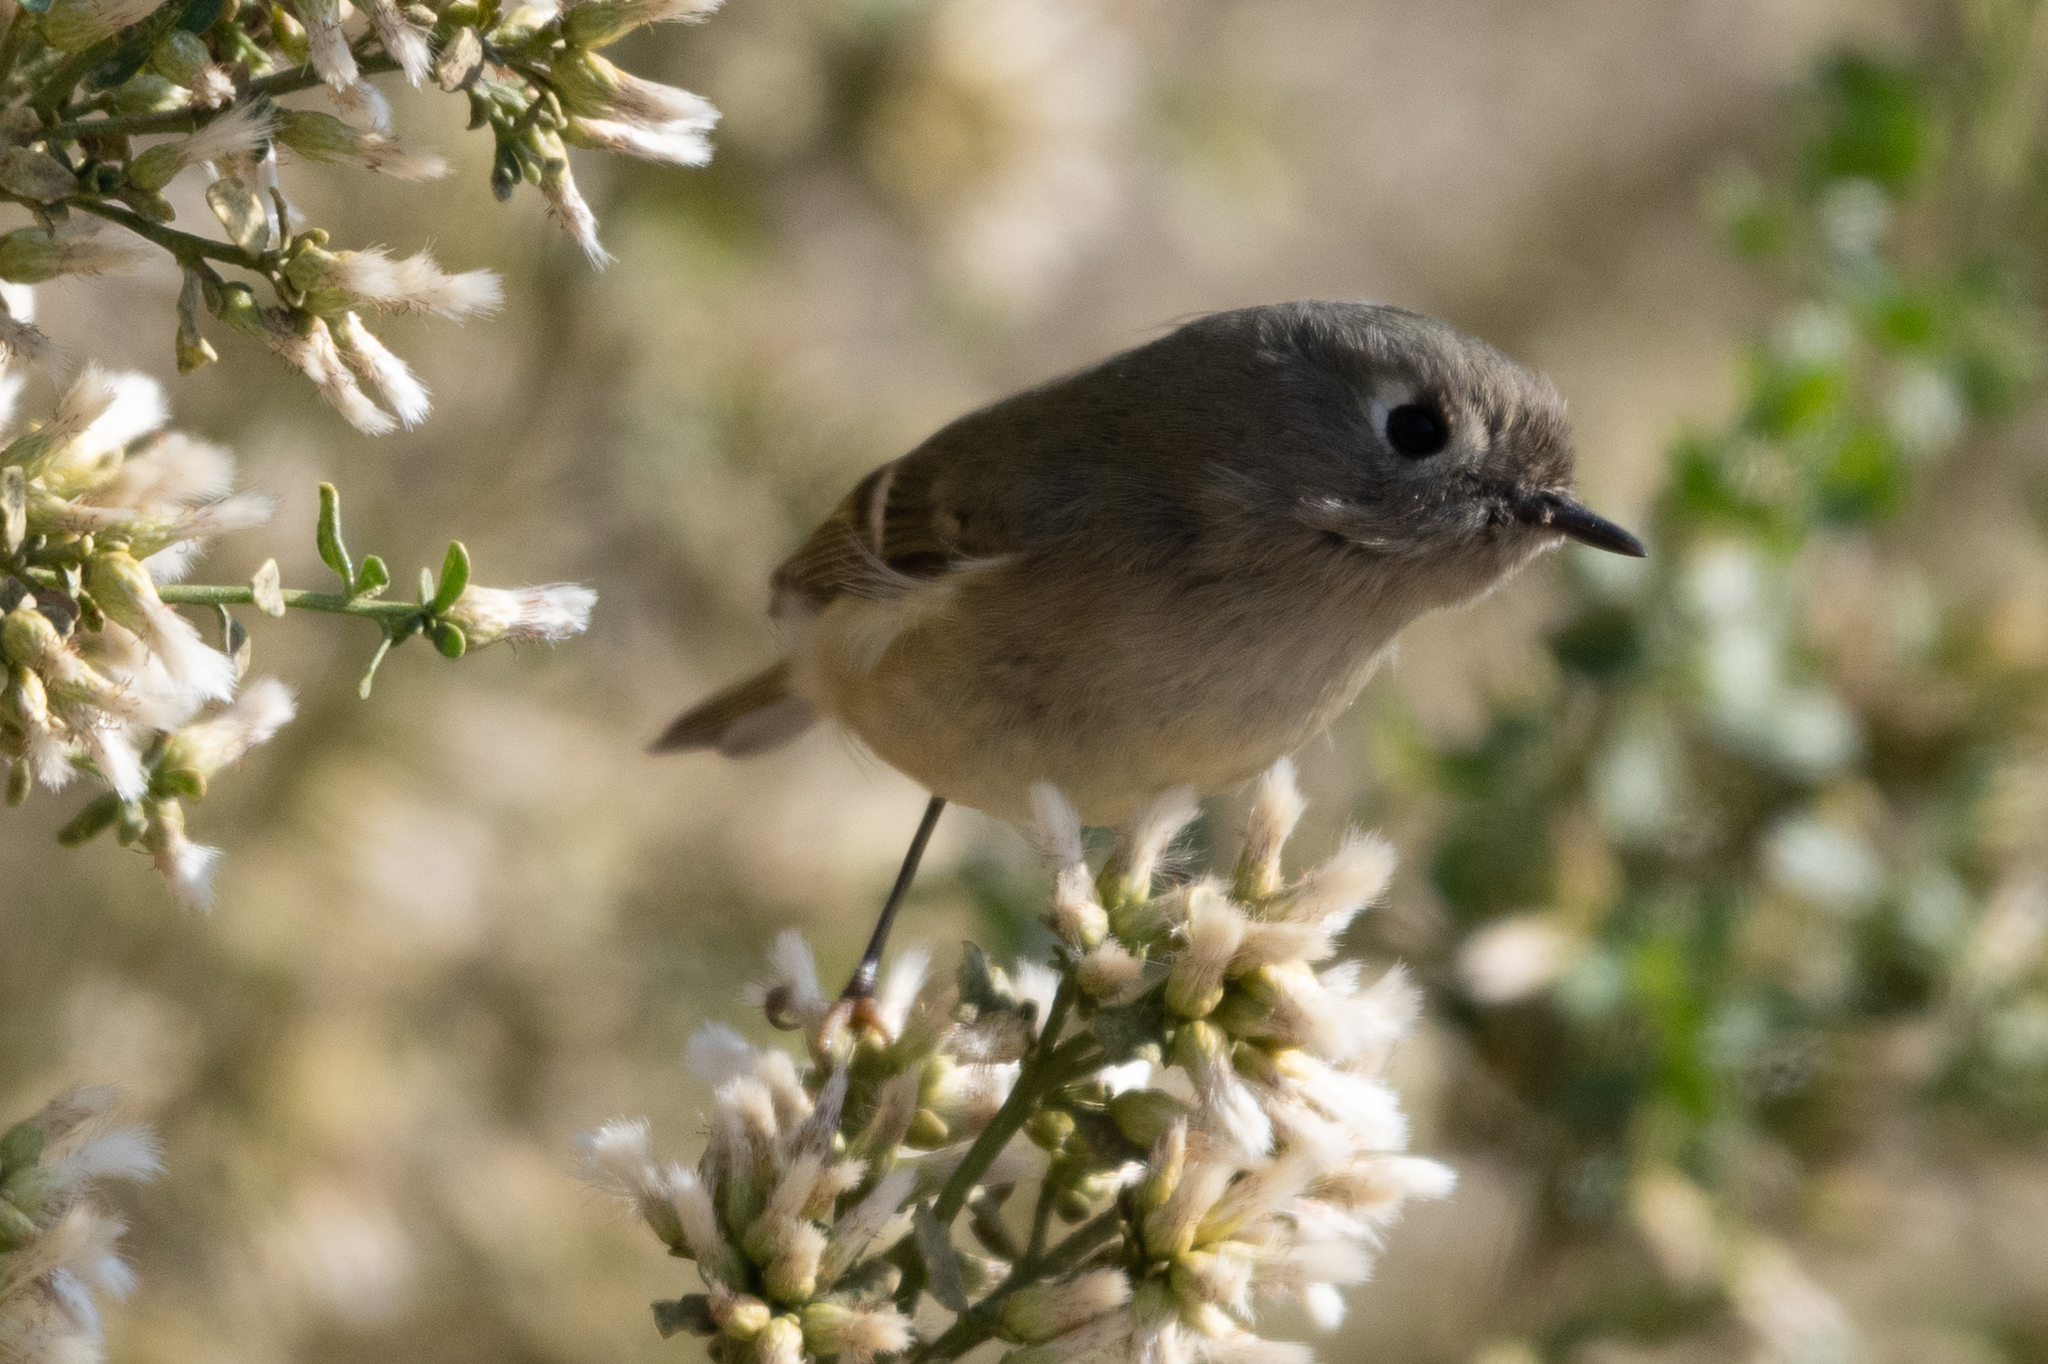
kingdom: Animalia
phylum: Chordata
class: Aves
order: Passeriformes
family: Regulidae
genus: Regulus
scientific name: Regulus calendula
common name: Ruby-crowned kinglet
